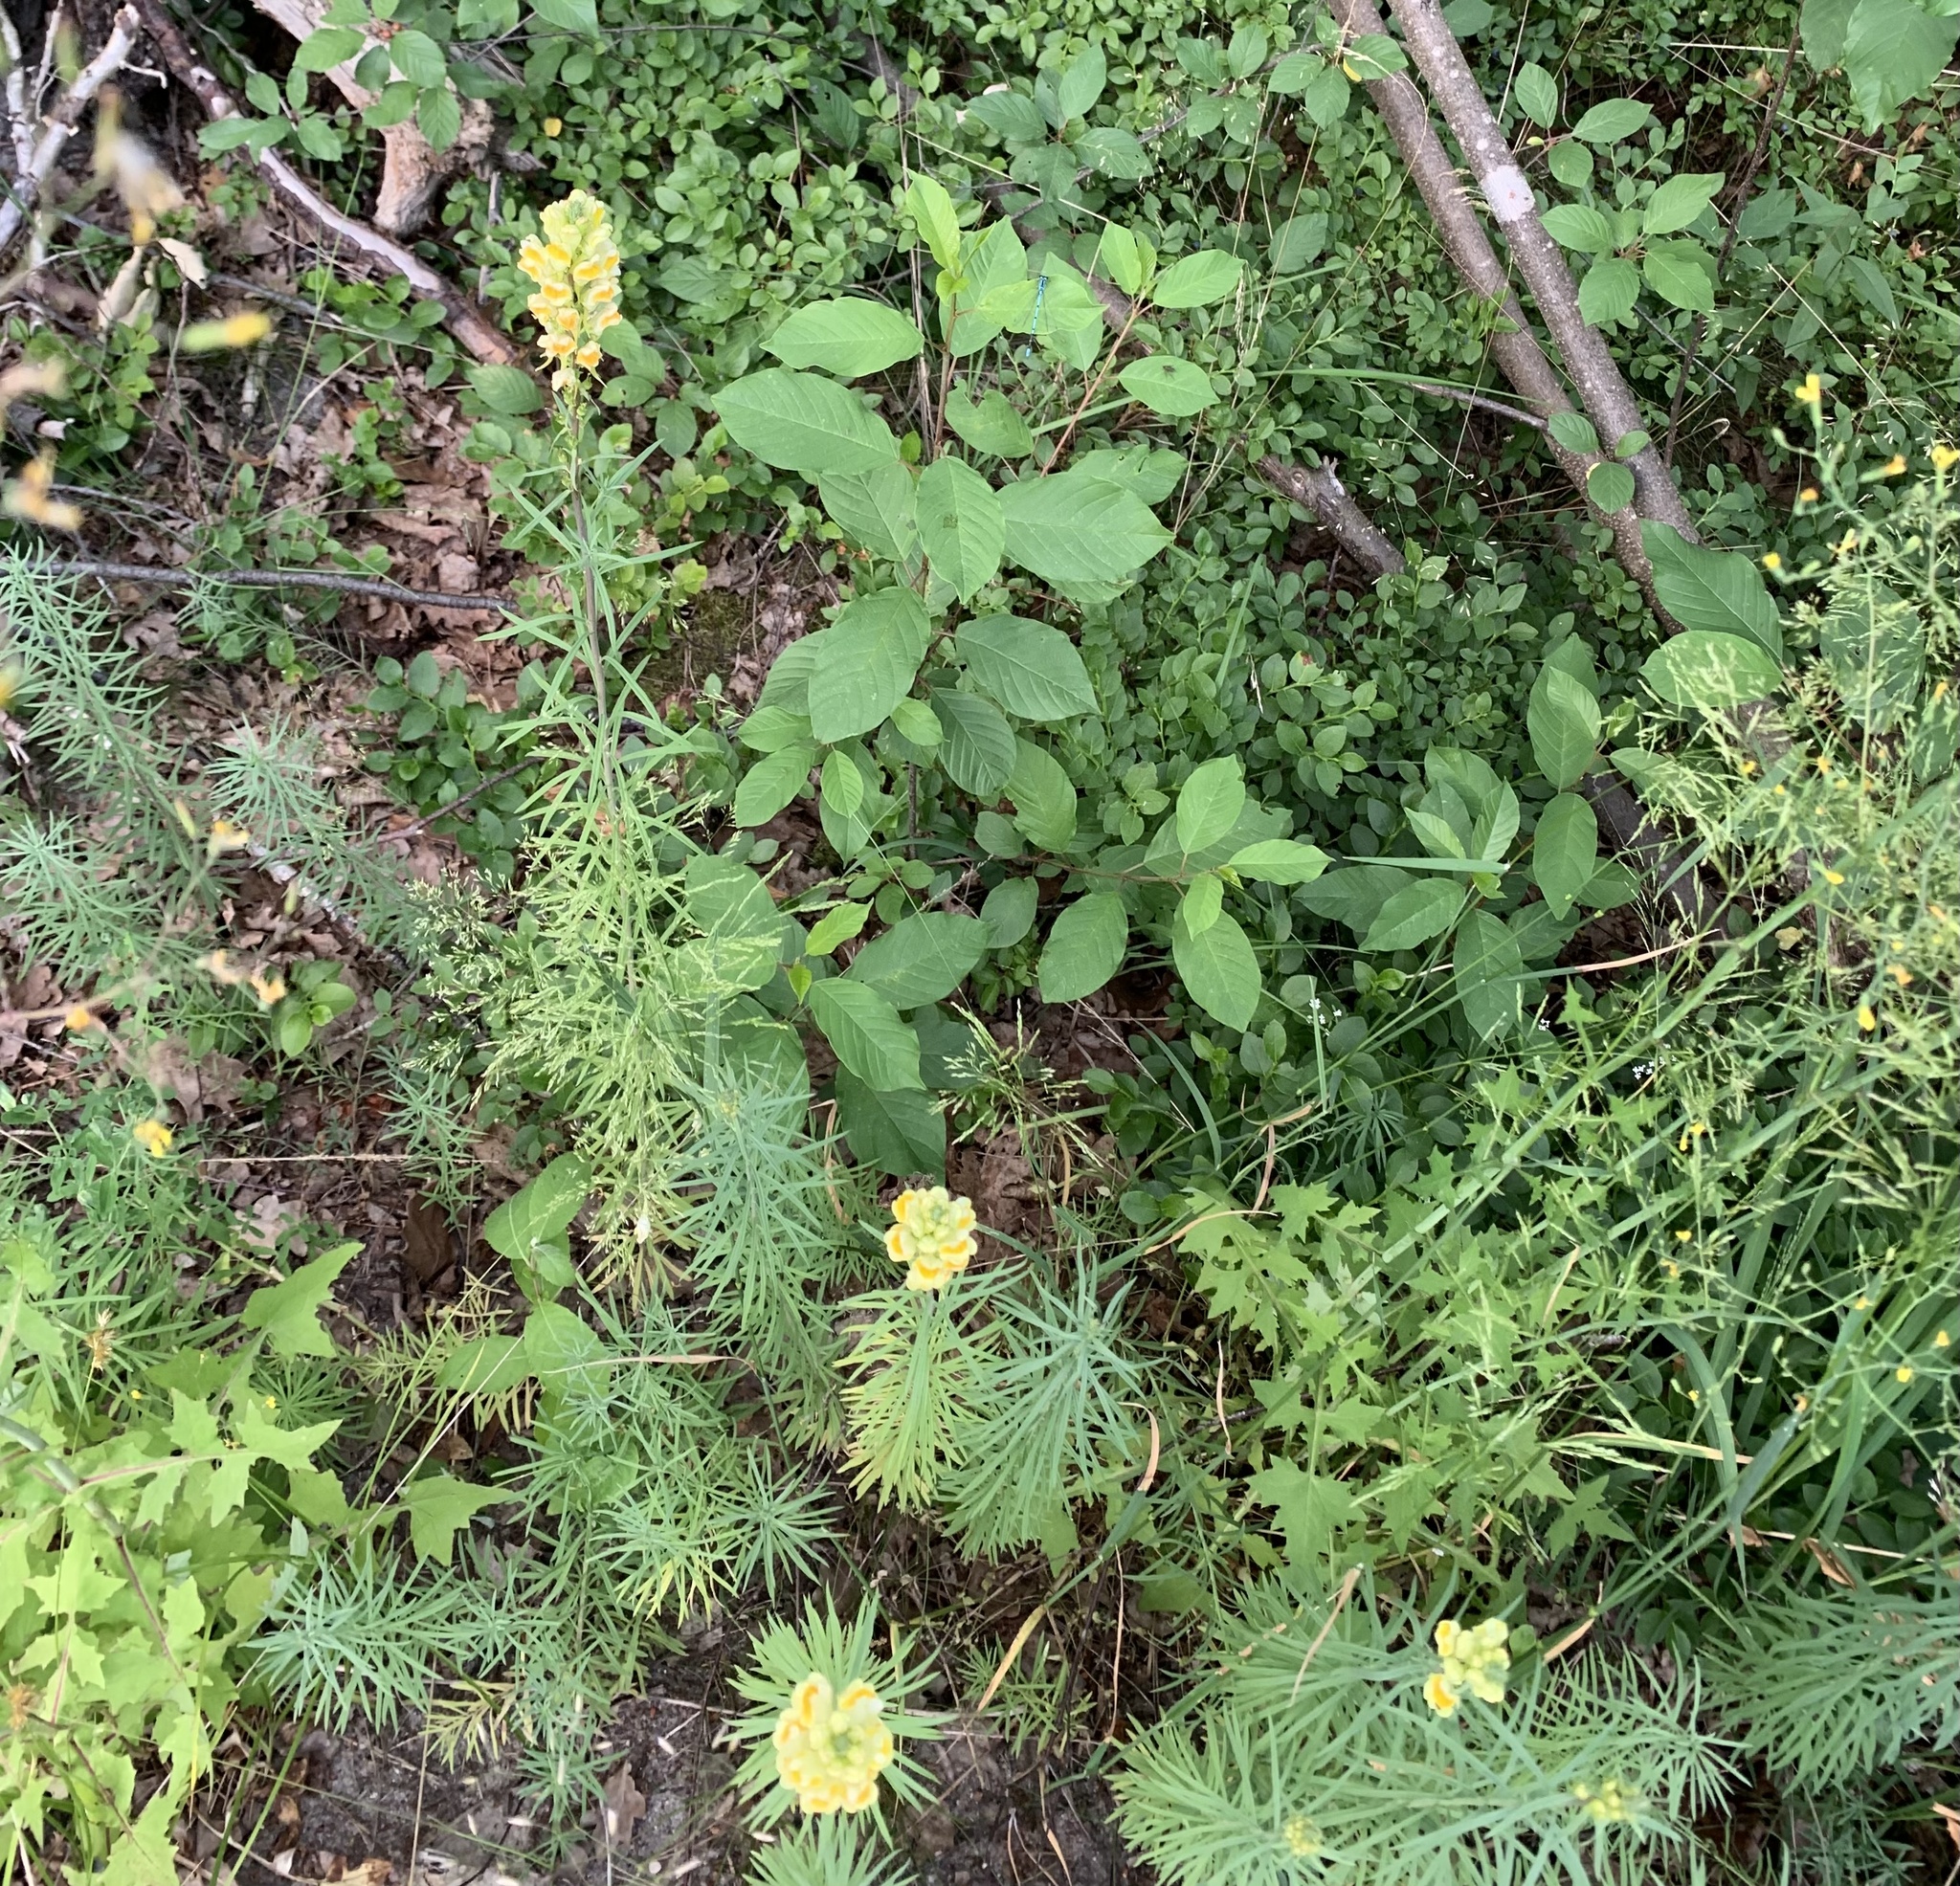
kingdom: Plantae
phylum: Tracheophyta
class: Magnoliopsida
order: Lamiales
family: Plantaginaceae
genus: Linaria
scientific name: Linaria vulgaris
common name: Butter and eggs
